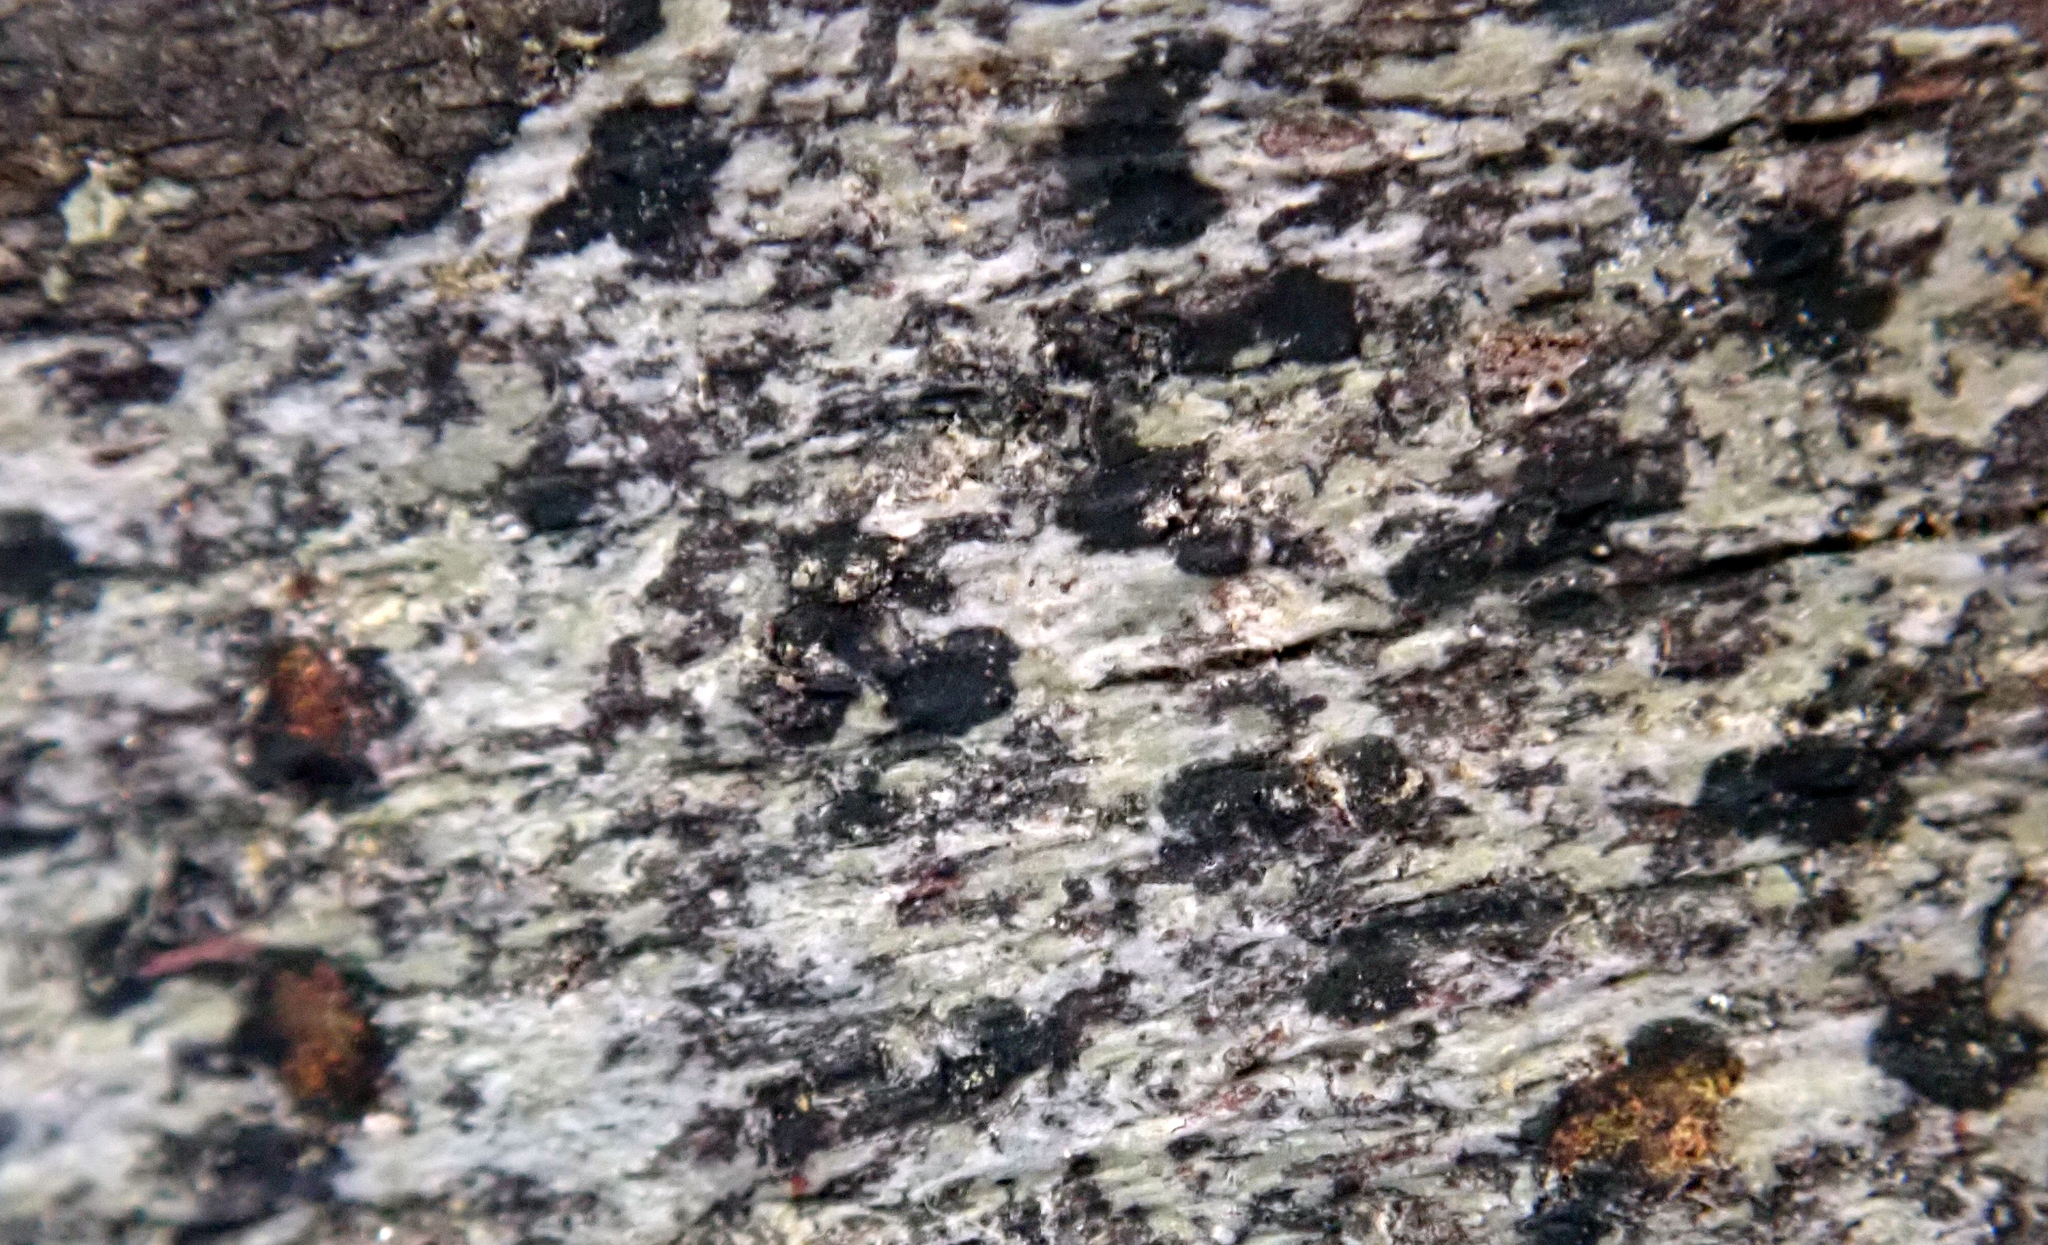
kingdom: Fungi
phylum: Ascomycota
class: Arthoniomycetes
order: Arthoniales
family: Arthoniaceae
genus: Arthonia
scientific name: Arthonia peraffinis
